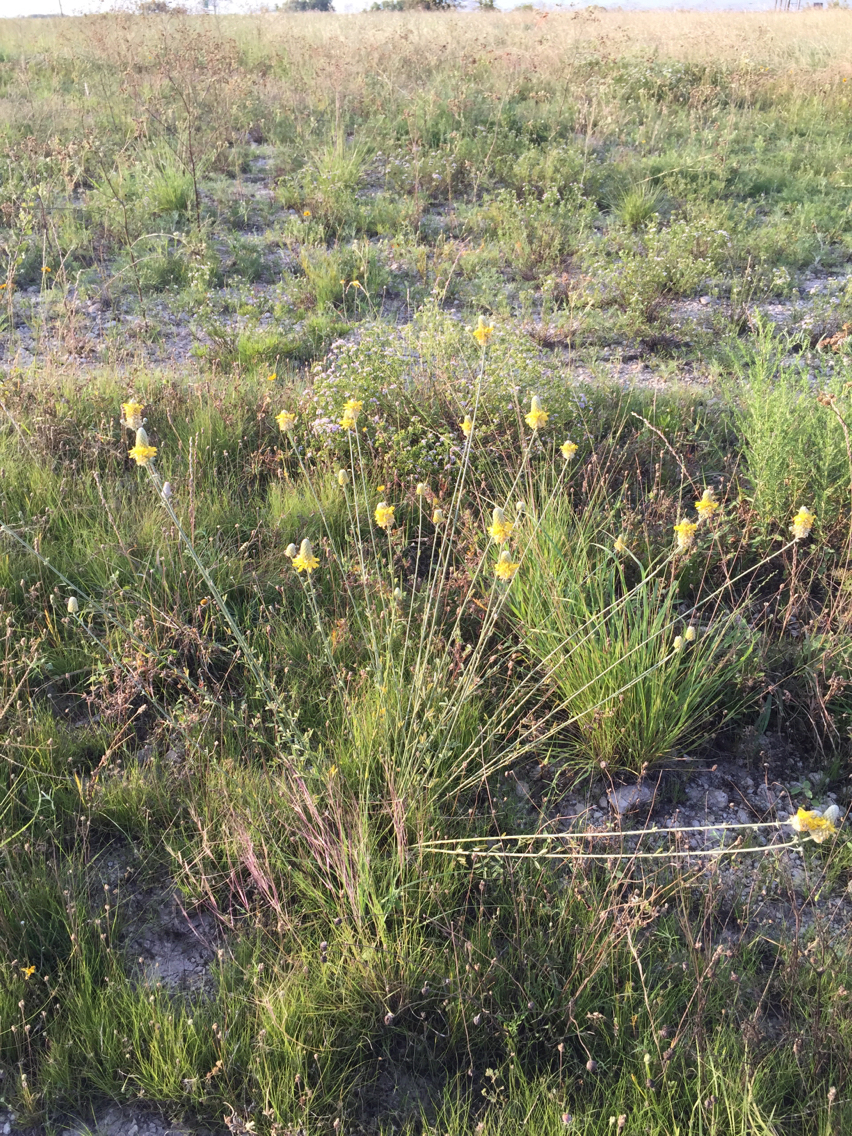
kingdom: Plantae
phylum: Tracheophyta
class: Magnoliopsida
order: Fabales
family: Fabaceae
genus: Dalea
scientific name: Dalea aurea
